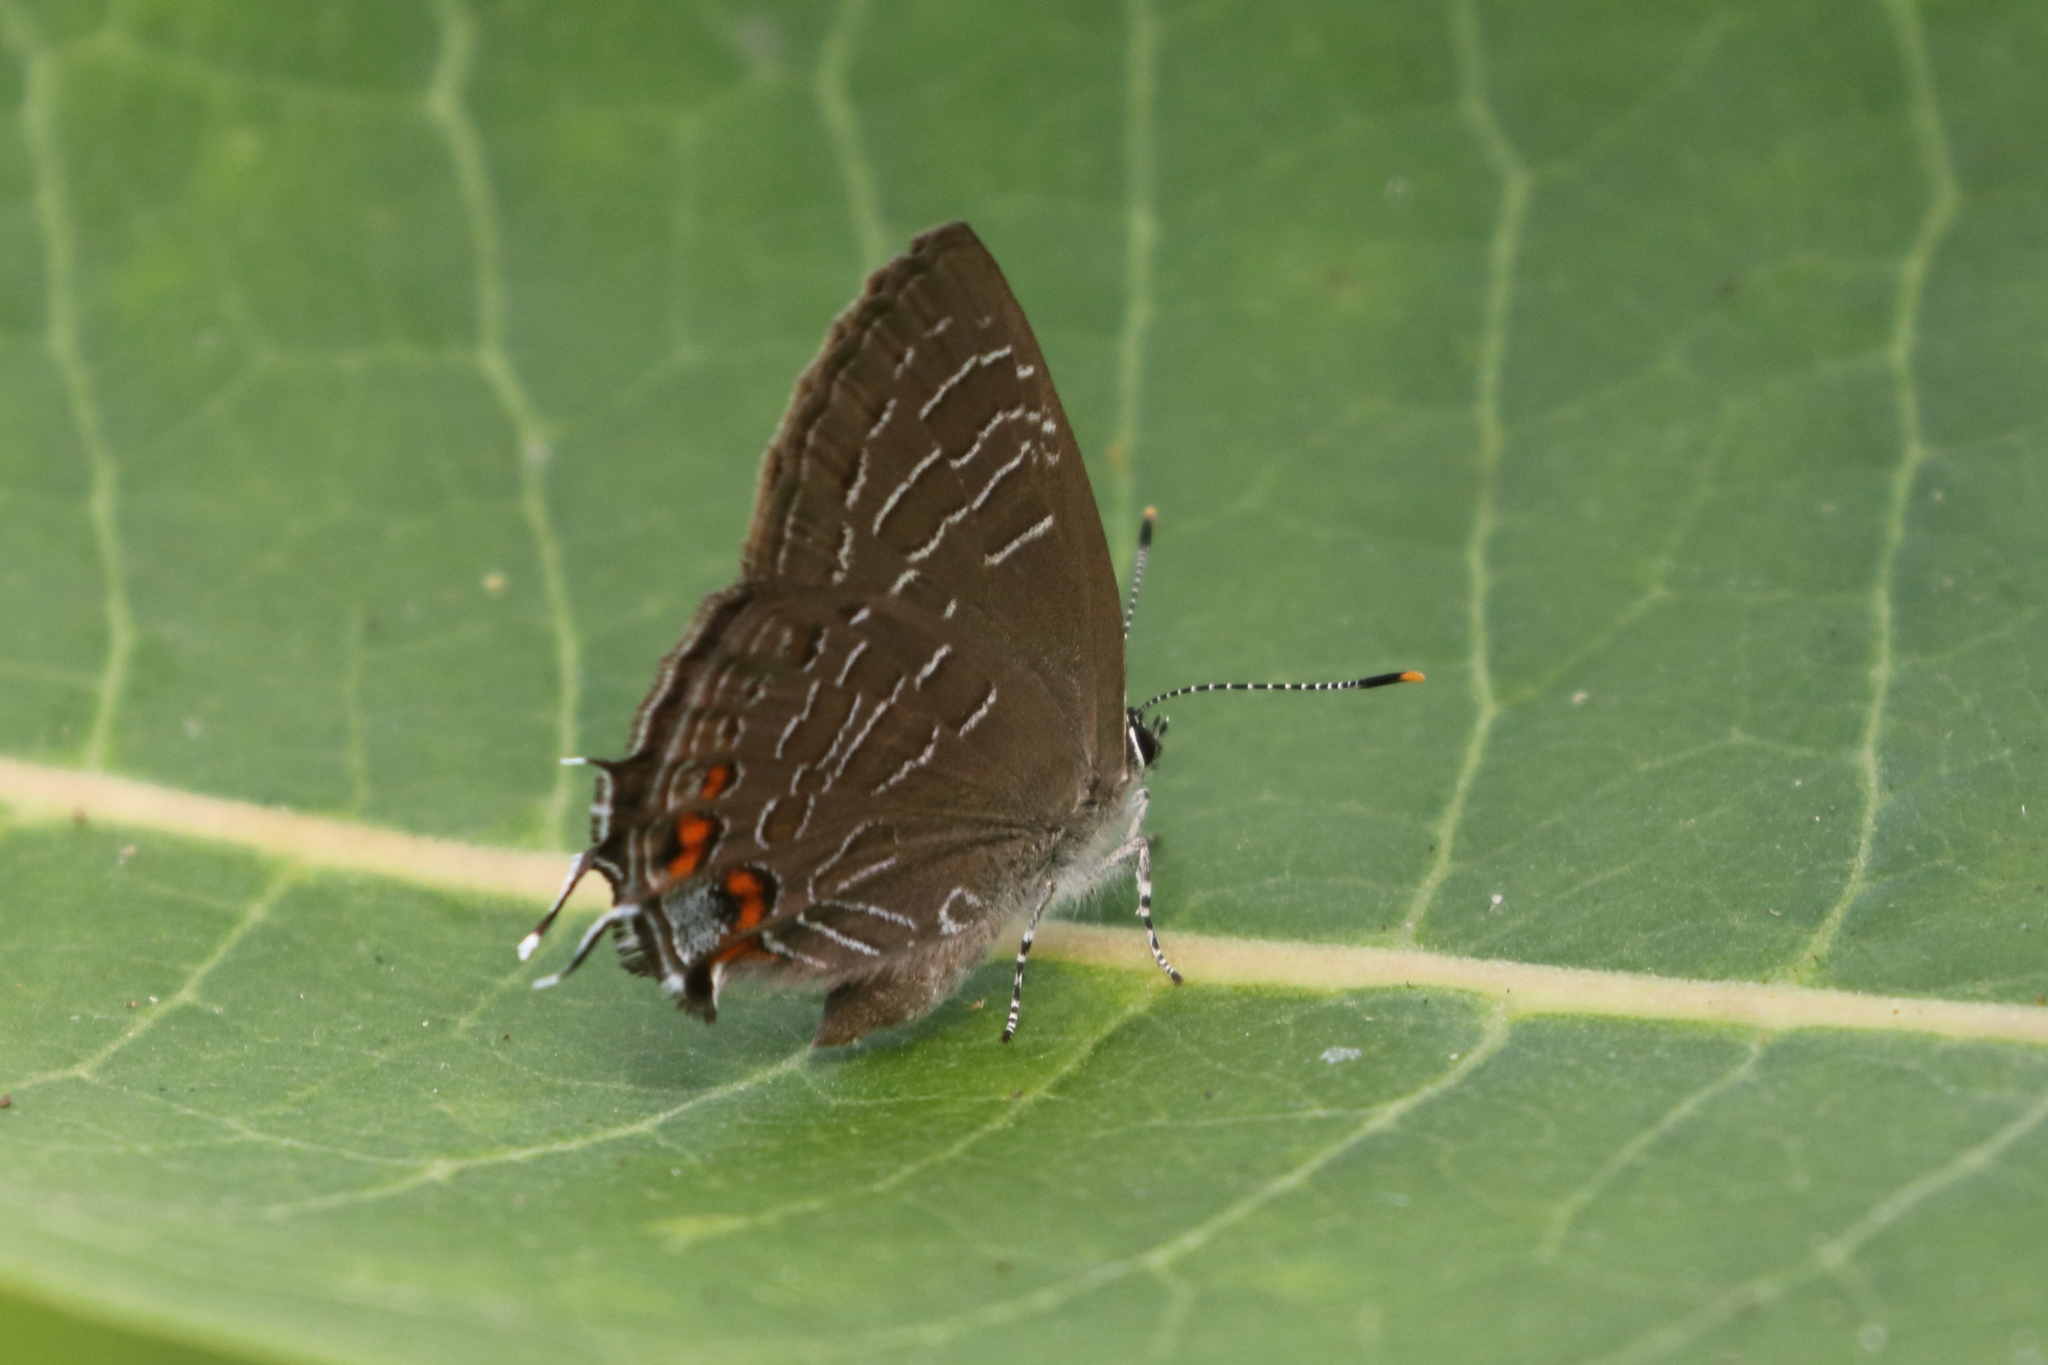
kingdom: Animalia
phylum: Arthropoda
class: Insecta
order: Lepidoptera
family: Lycaenidae
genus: Satyrium
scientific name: Satyrium liparops
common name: Striped hairstreak
